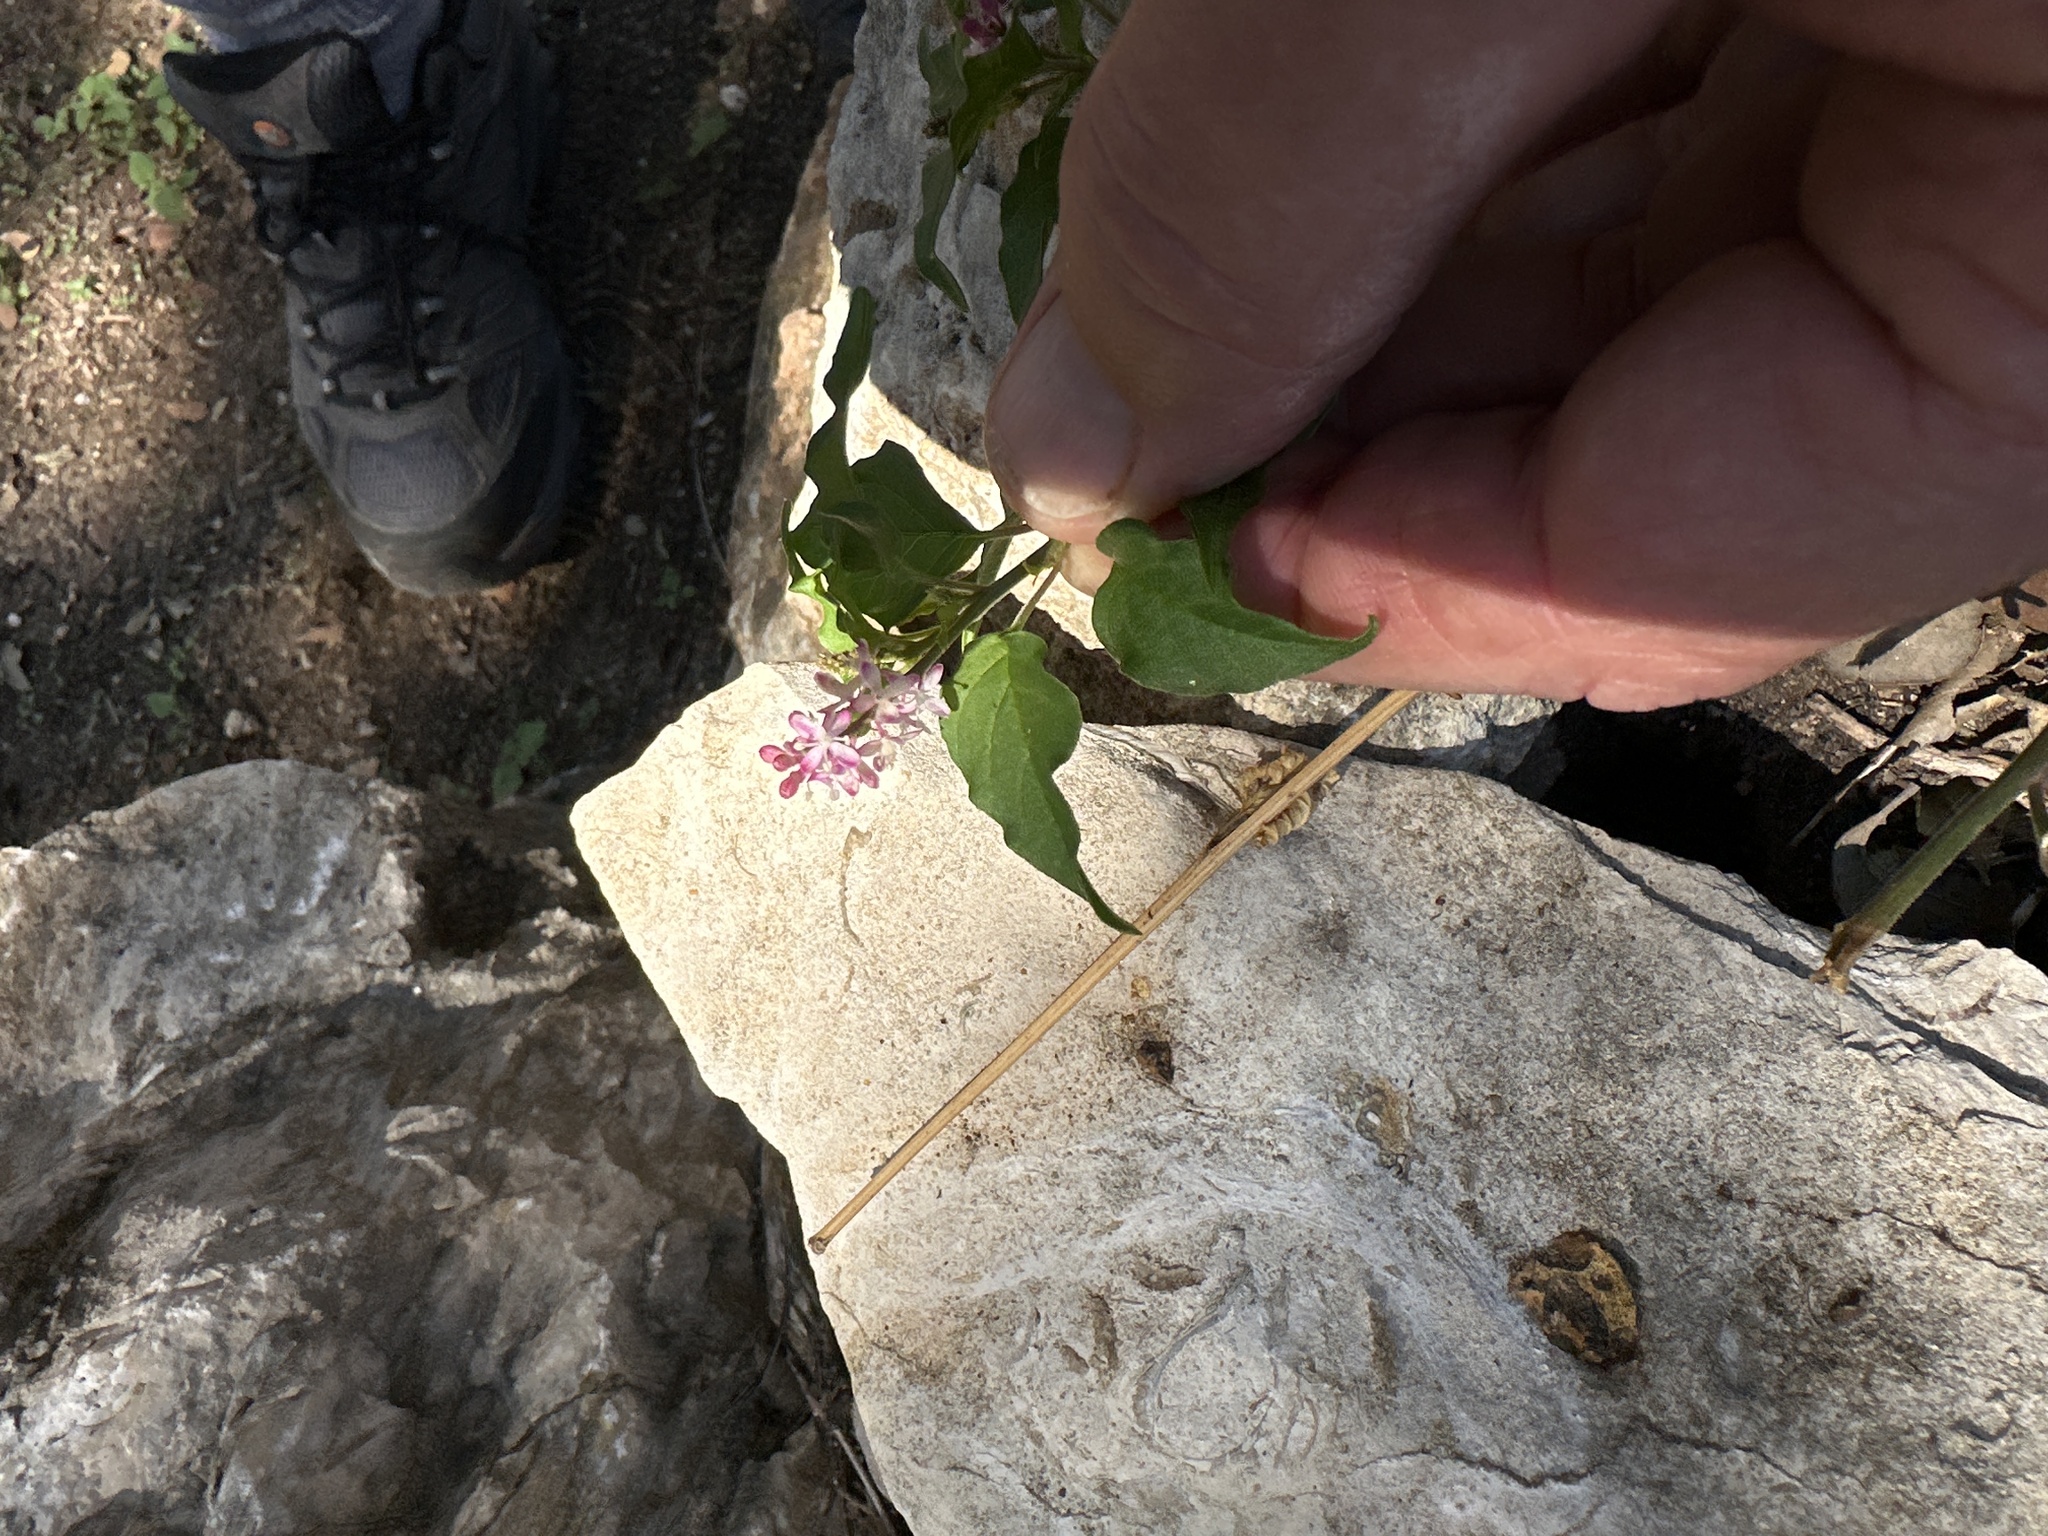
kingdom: Plantae
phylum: Tracheophyta
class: Magnoliopsida
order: Caryophyllales
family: Phytolaccaceae
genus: Rivina
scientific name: Rivina humilis
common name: Rougeplant
